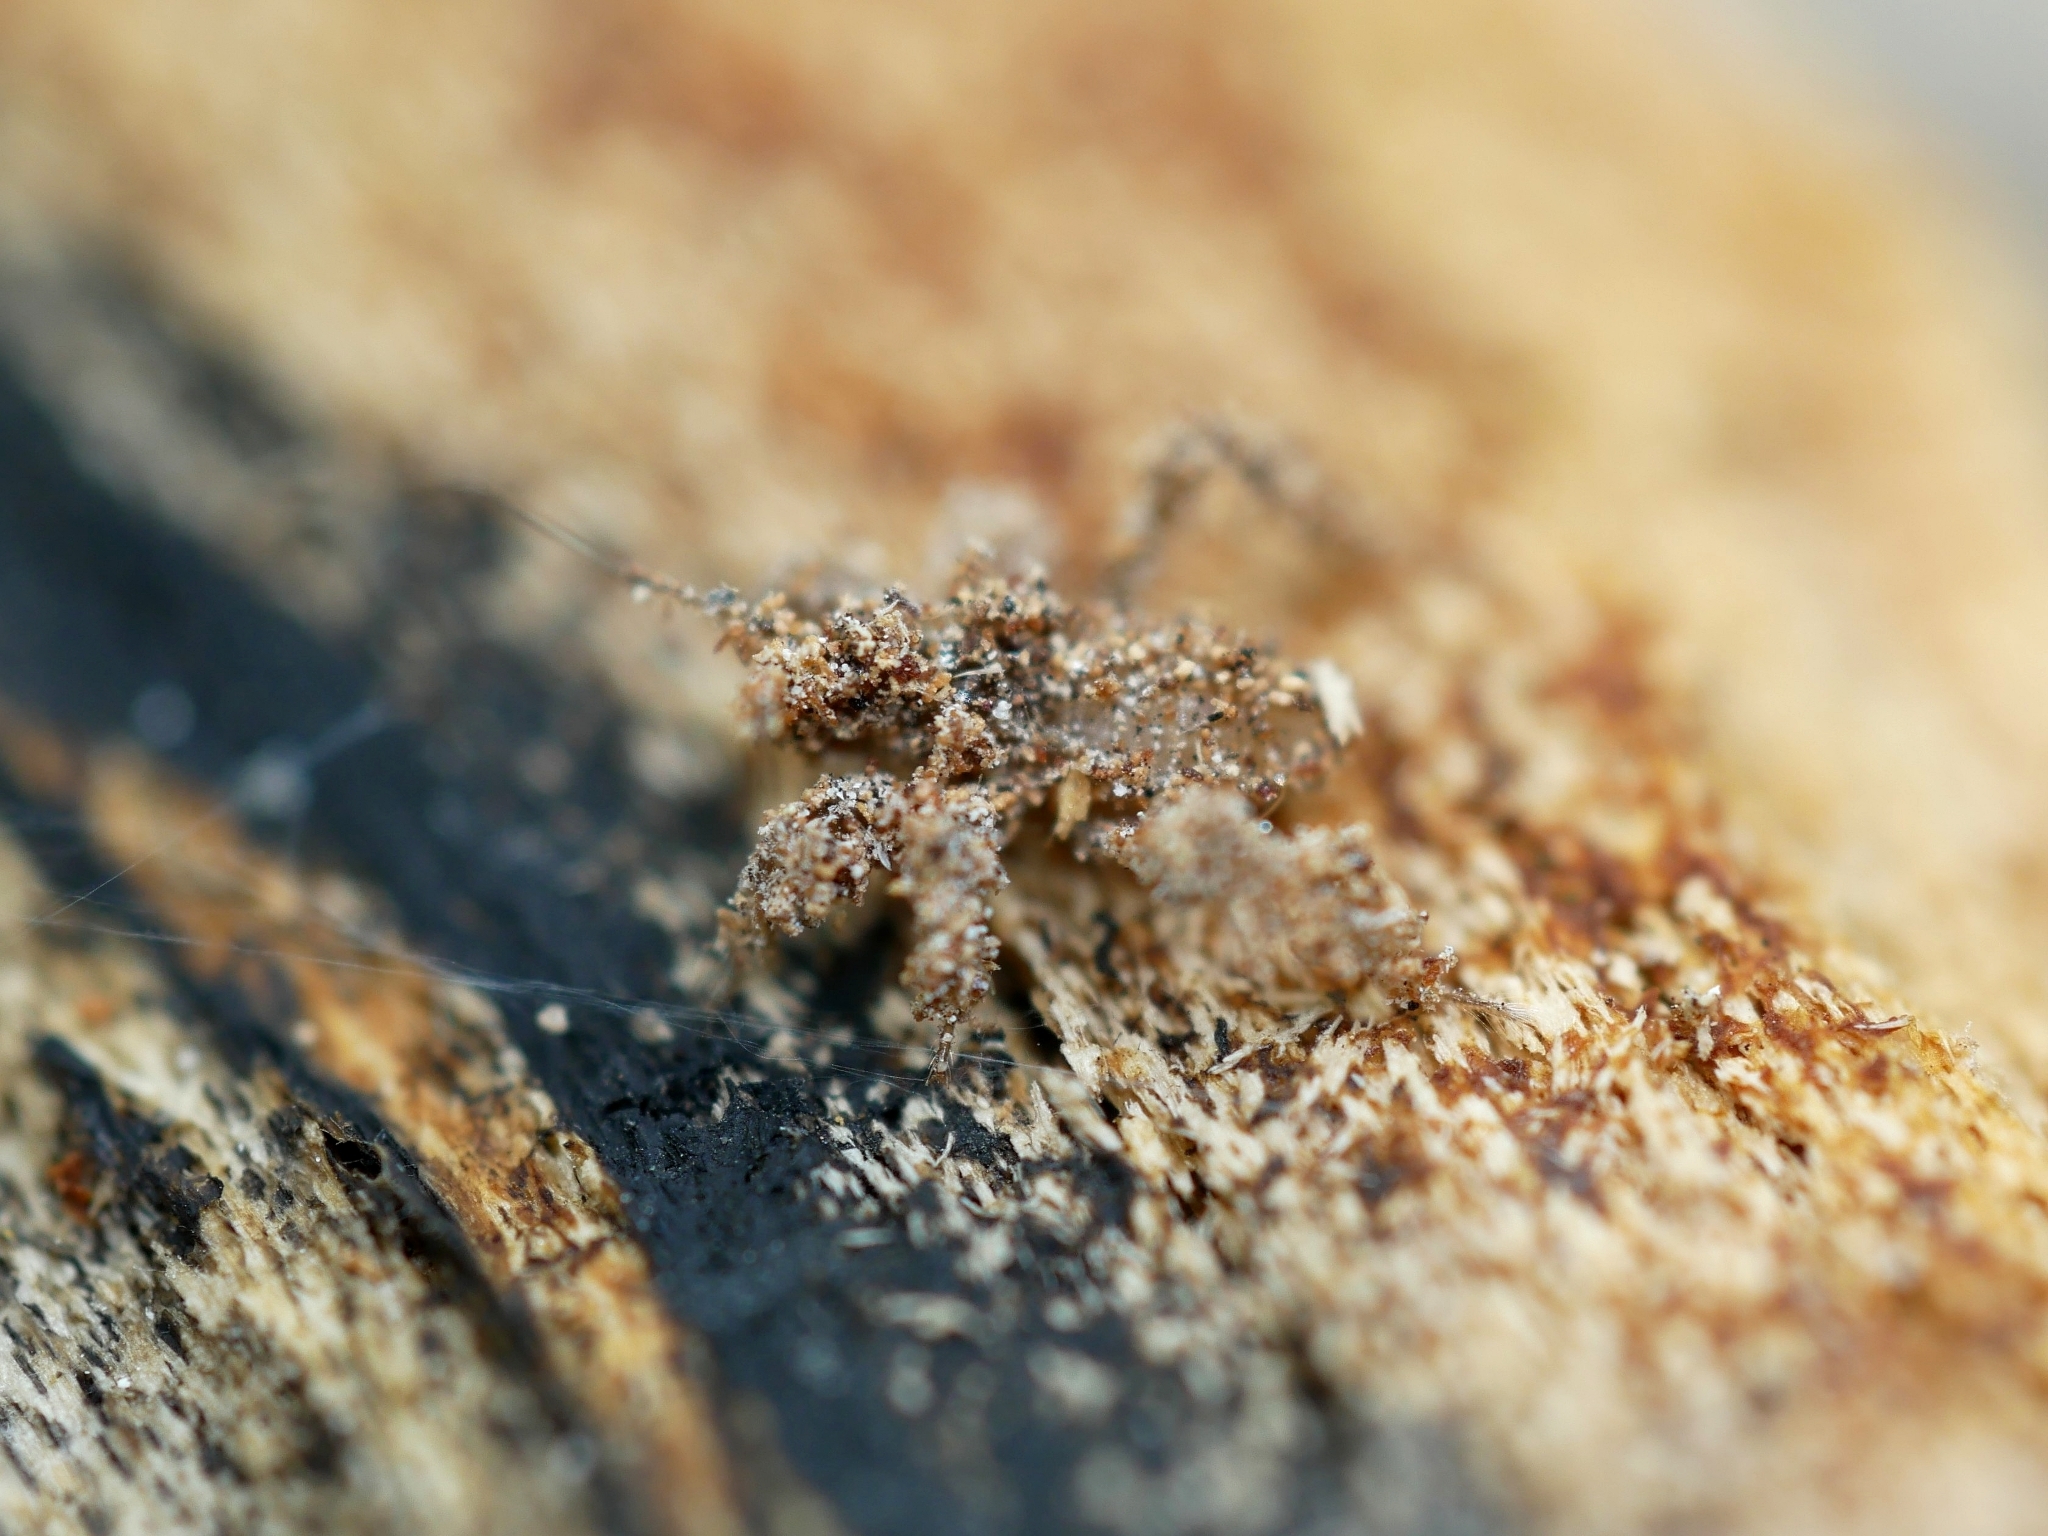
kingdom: Animalia
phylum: Arthropoda
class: Insecta
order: Hemiptera
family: Reduviidae
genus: Reduvius
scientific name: Reduvius personatus
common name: Masked hunter
